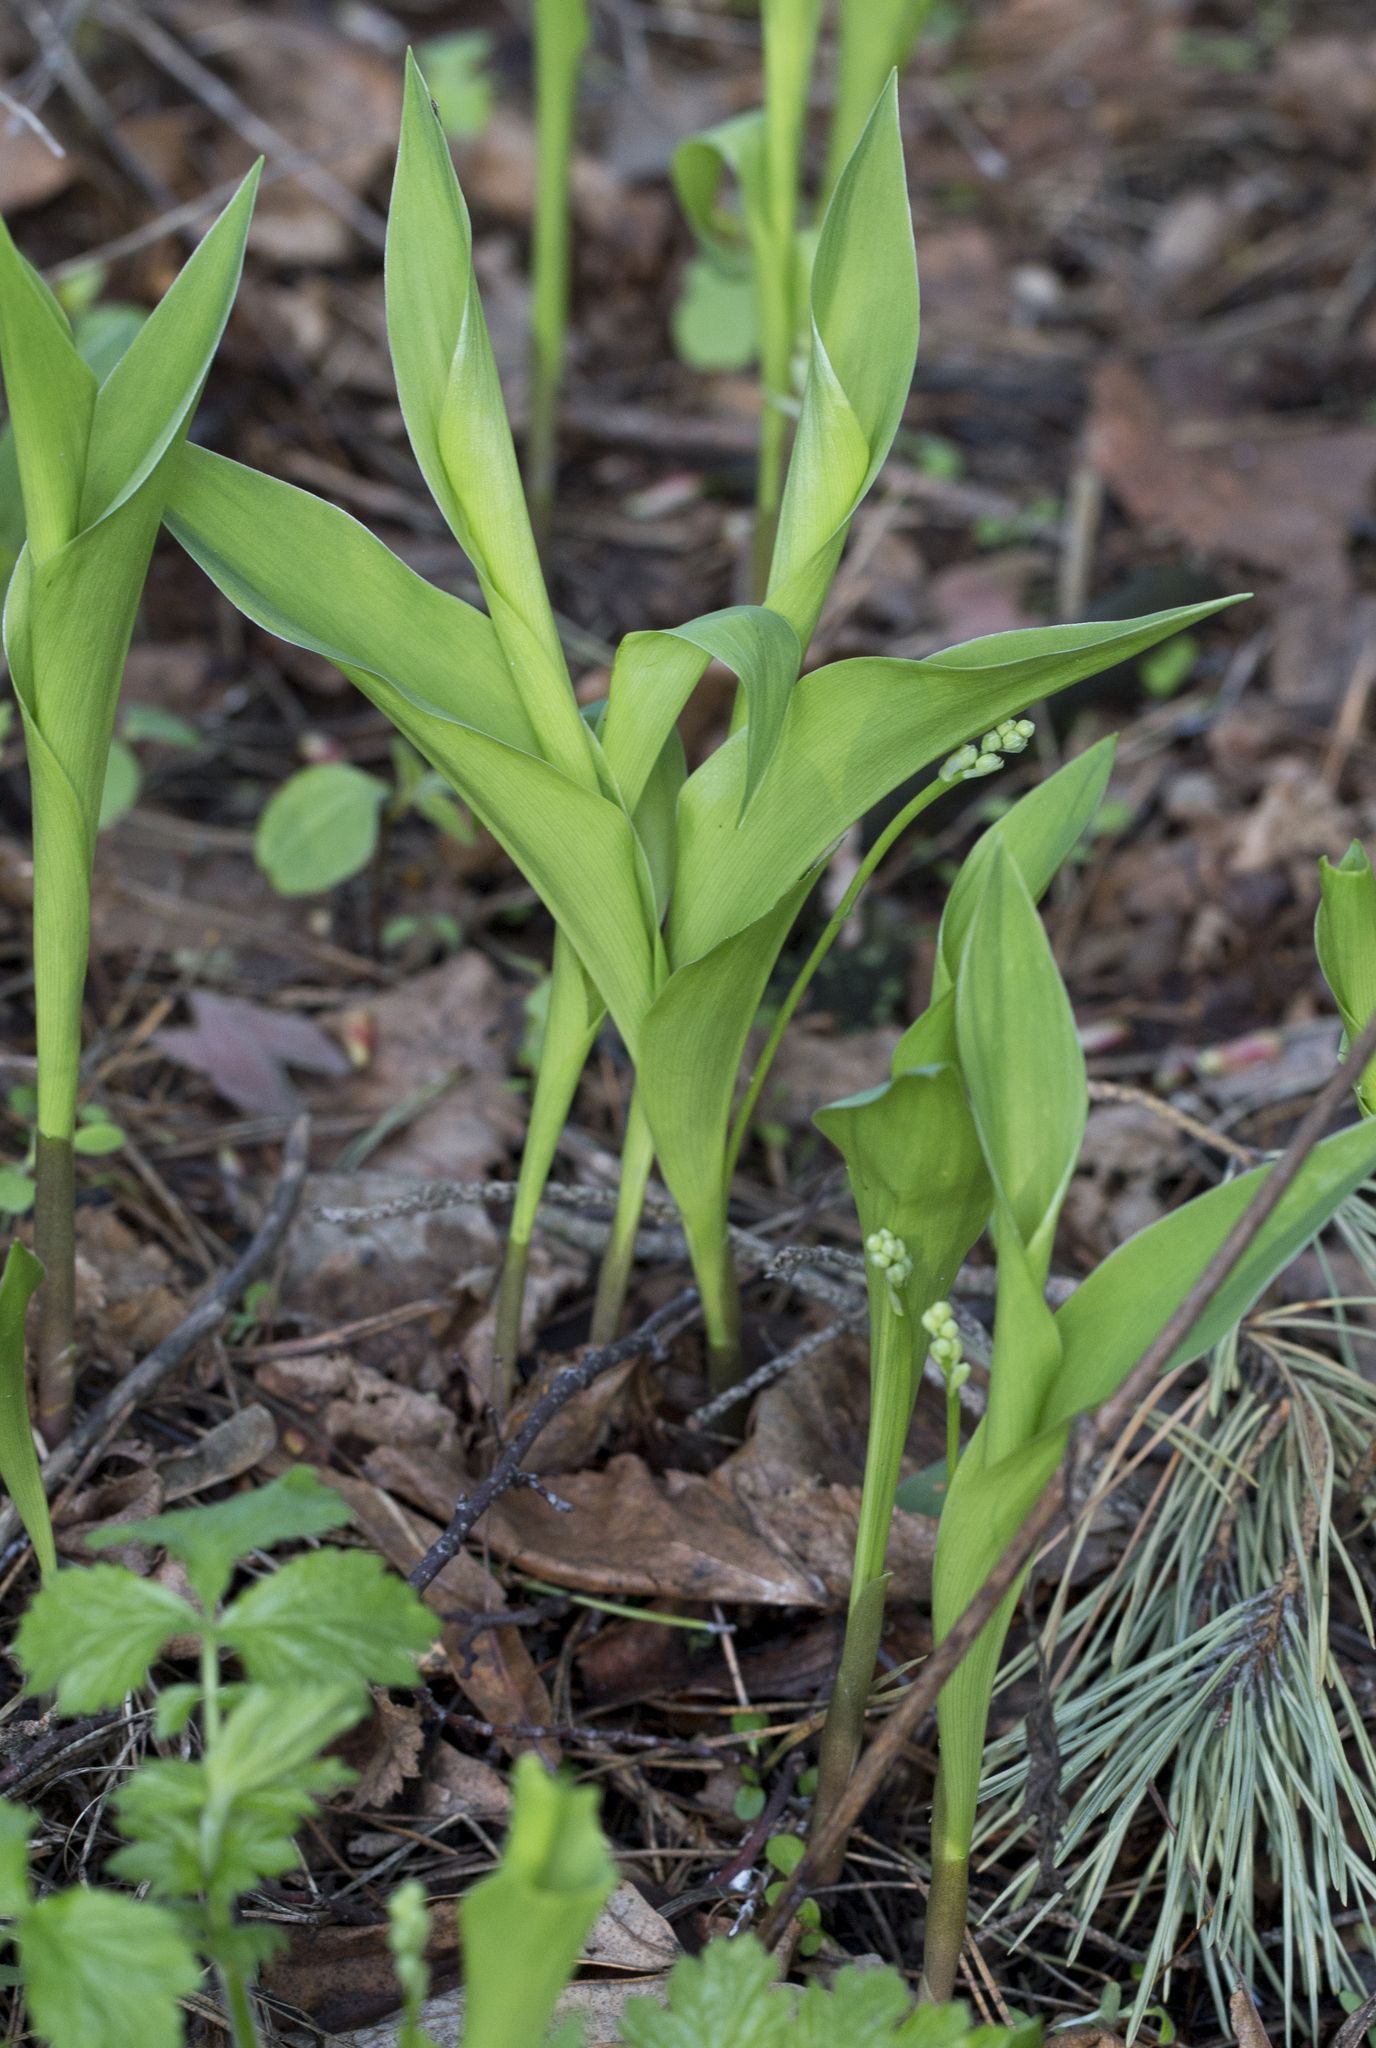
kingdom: Plantae
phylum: Tracheophyta
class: Liliopsida
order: Asparagales
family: Asparagaceae
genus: Convallaria
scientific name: Convallaria majalis
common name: Lily-of-the-valley
